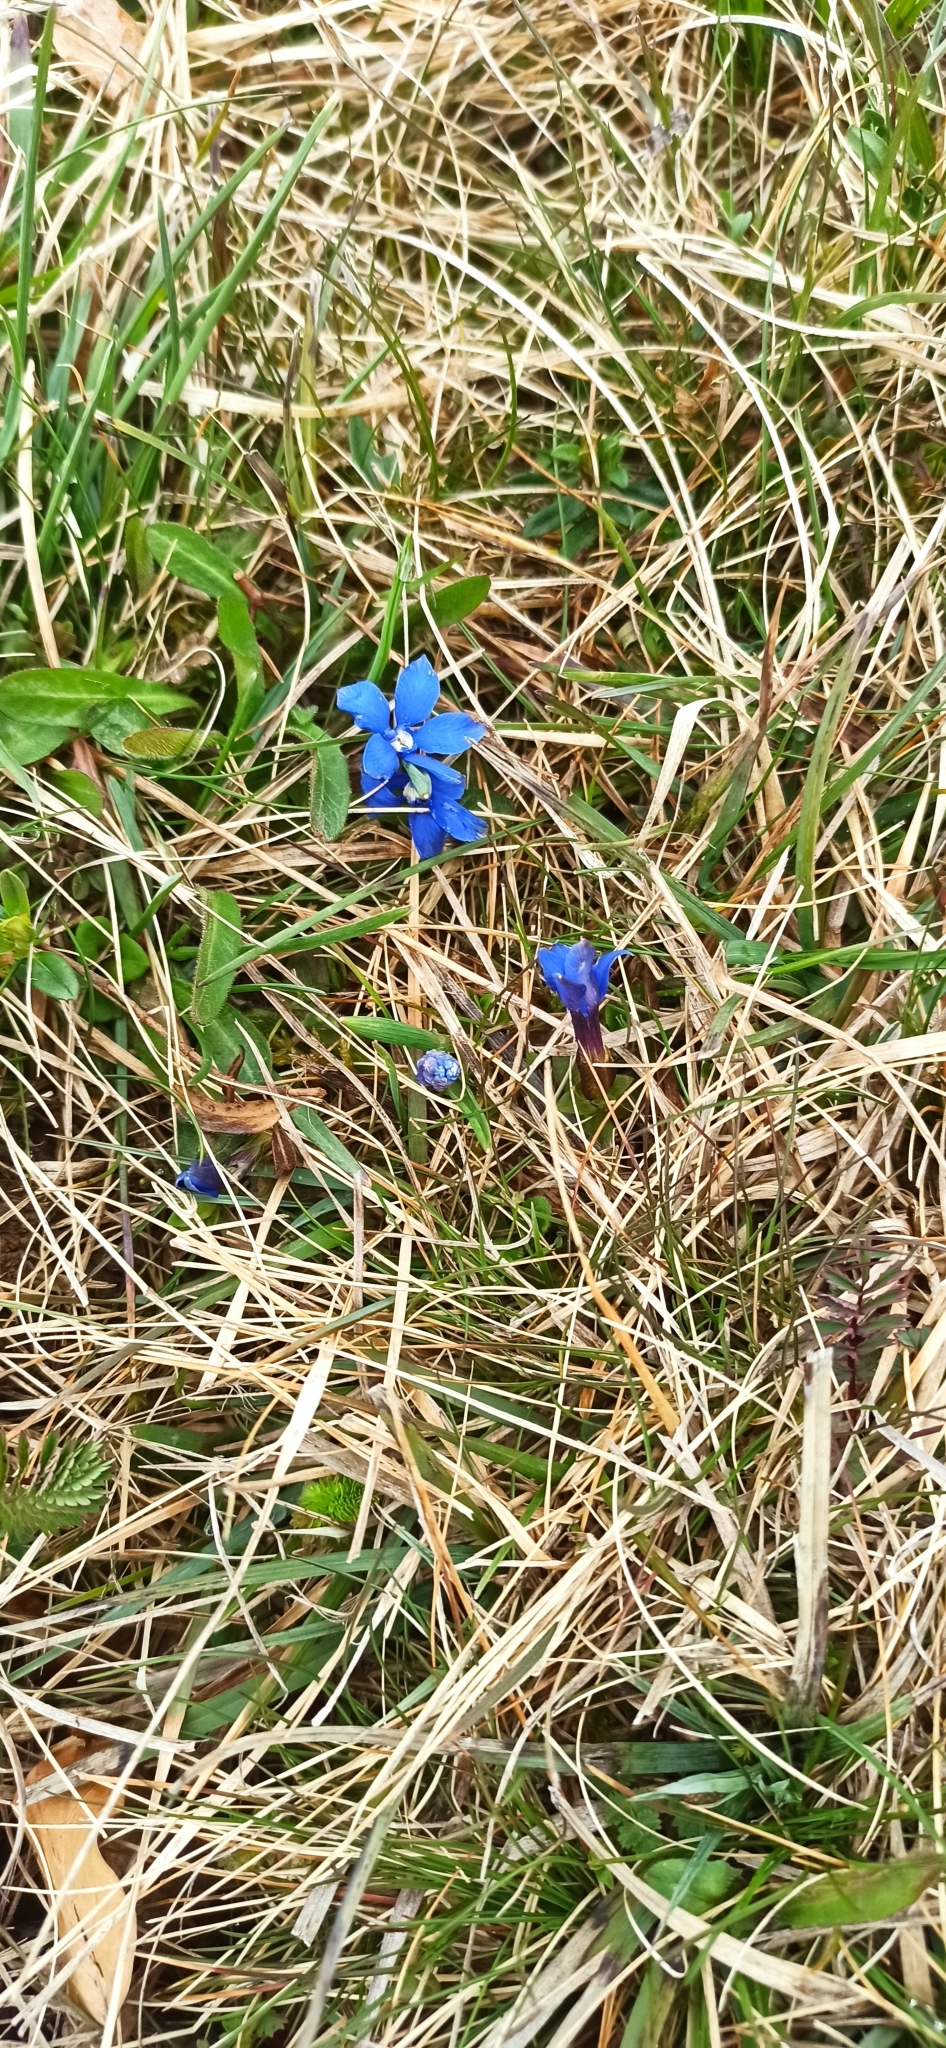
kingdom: Plantae
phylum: Tracheophyta
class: Magnoliopsida
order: Gentianales
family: Gentianaceae
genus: Gentiana
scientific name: Gentiana verna
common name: Spring gentian
